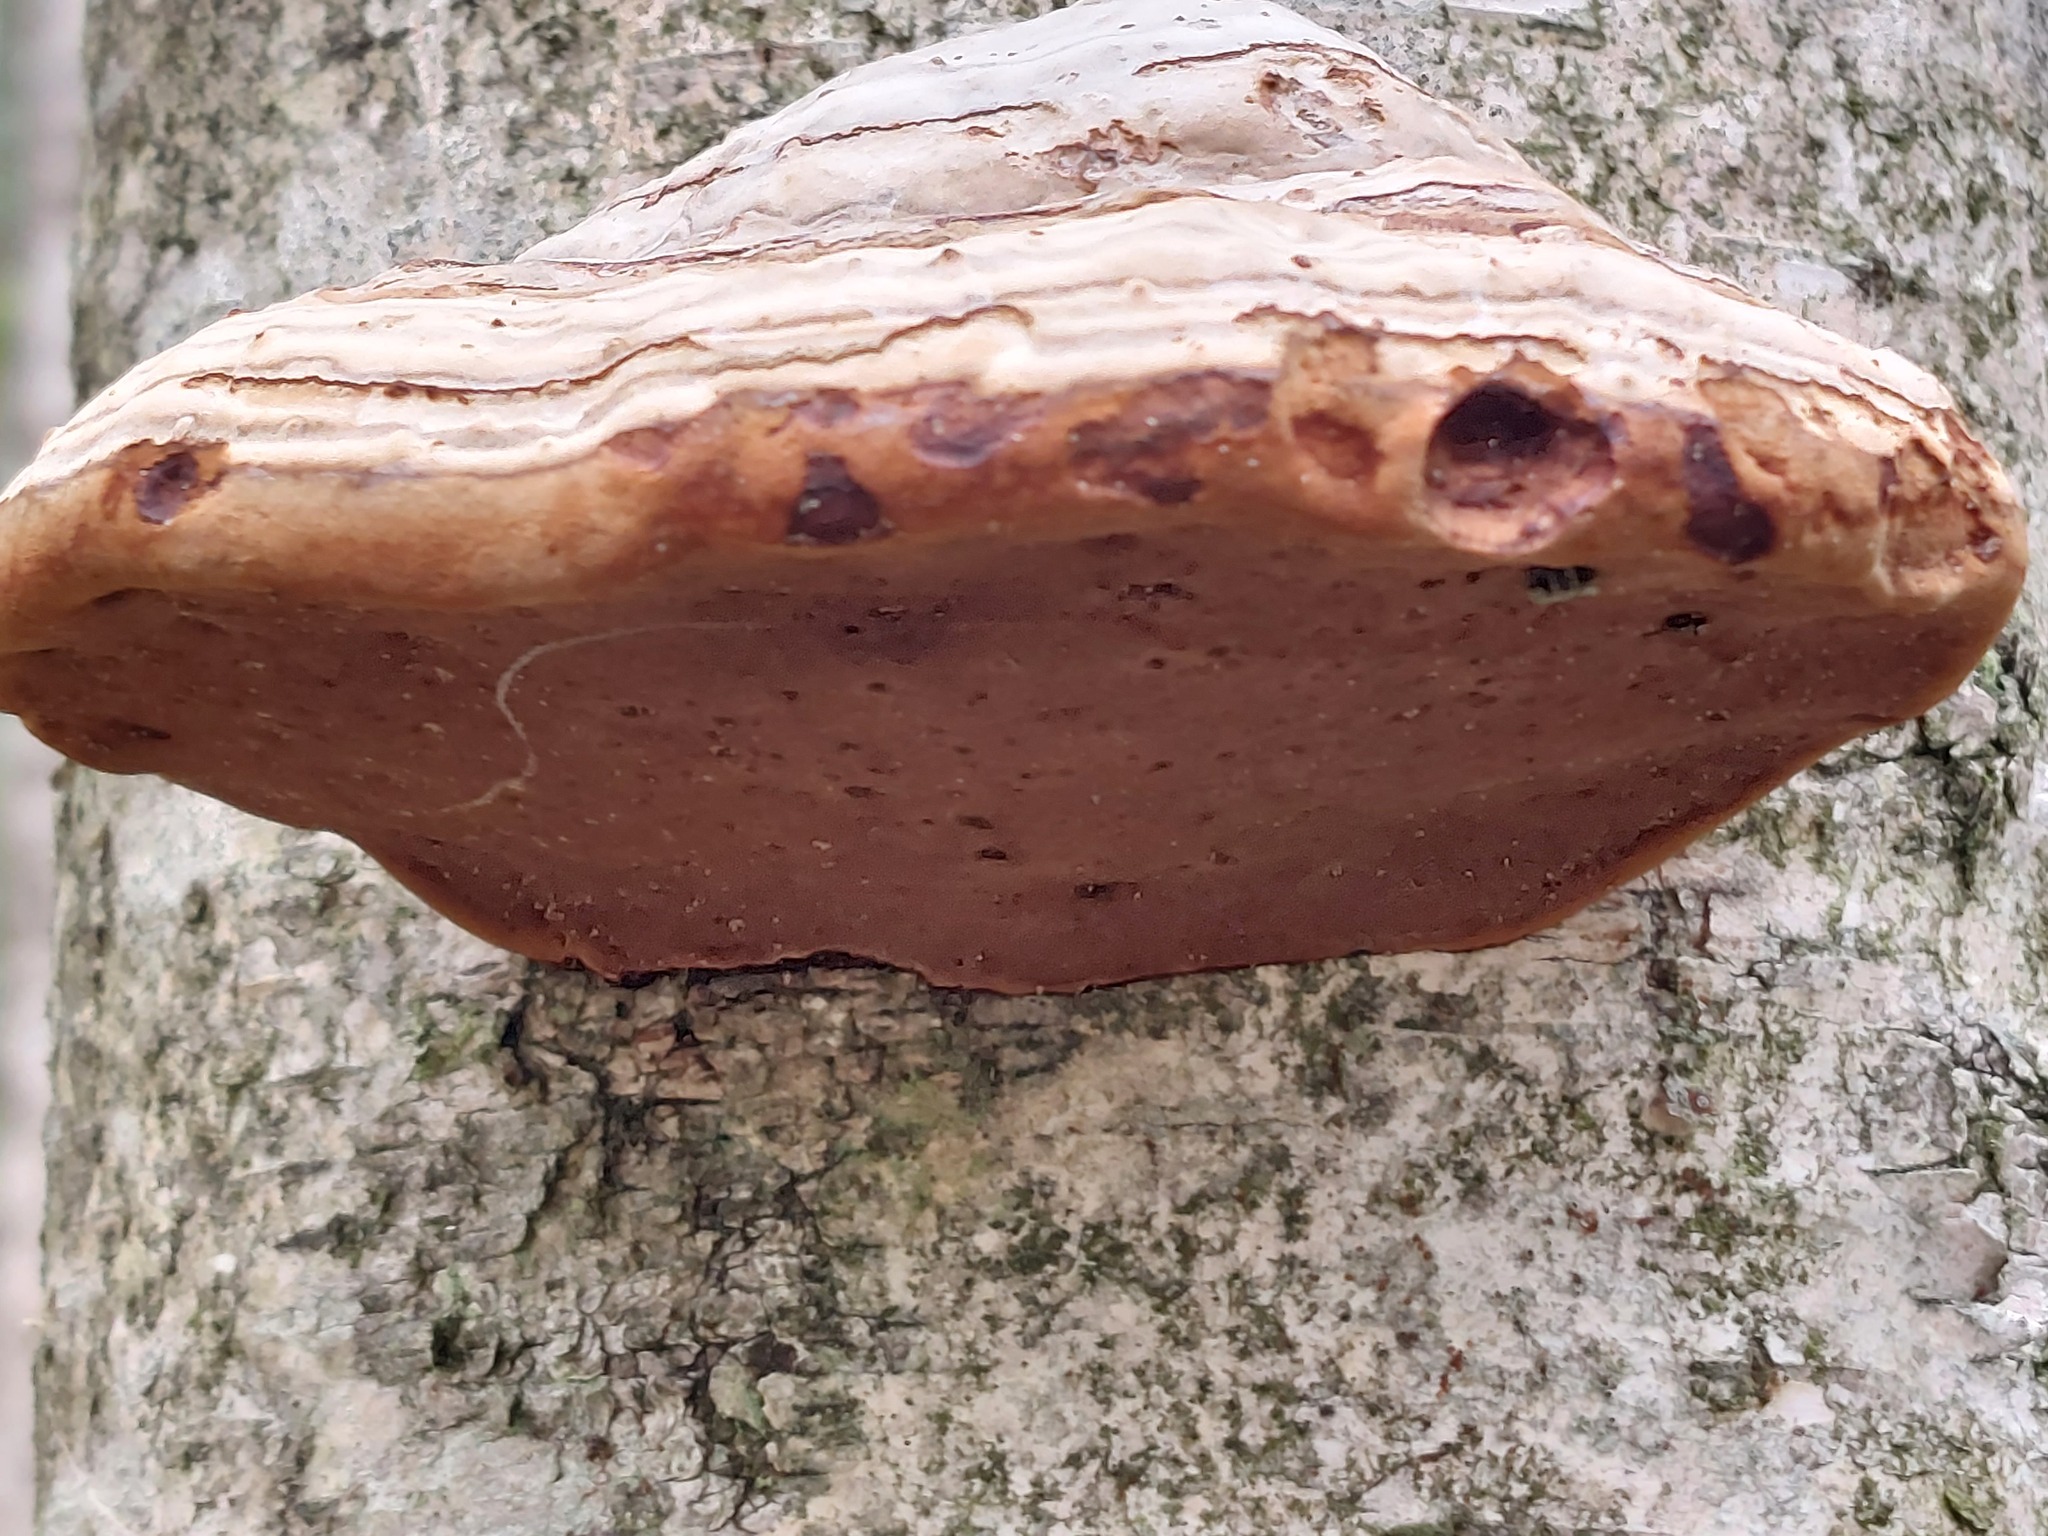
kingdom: Fungi
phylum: Basidiomycota
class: Agaricomycetes
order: Polyporales
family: Polyporaceae
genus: Fomes
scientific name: Fomes fomentarius
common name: Hoof fungus
